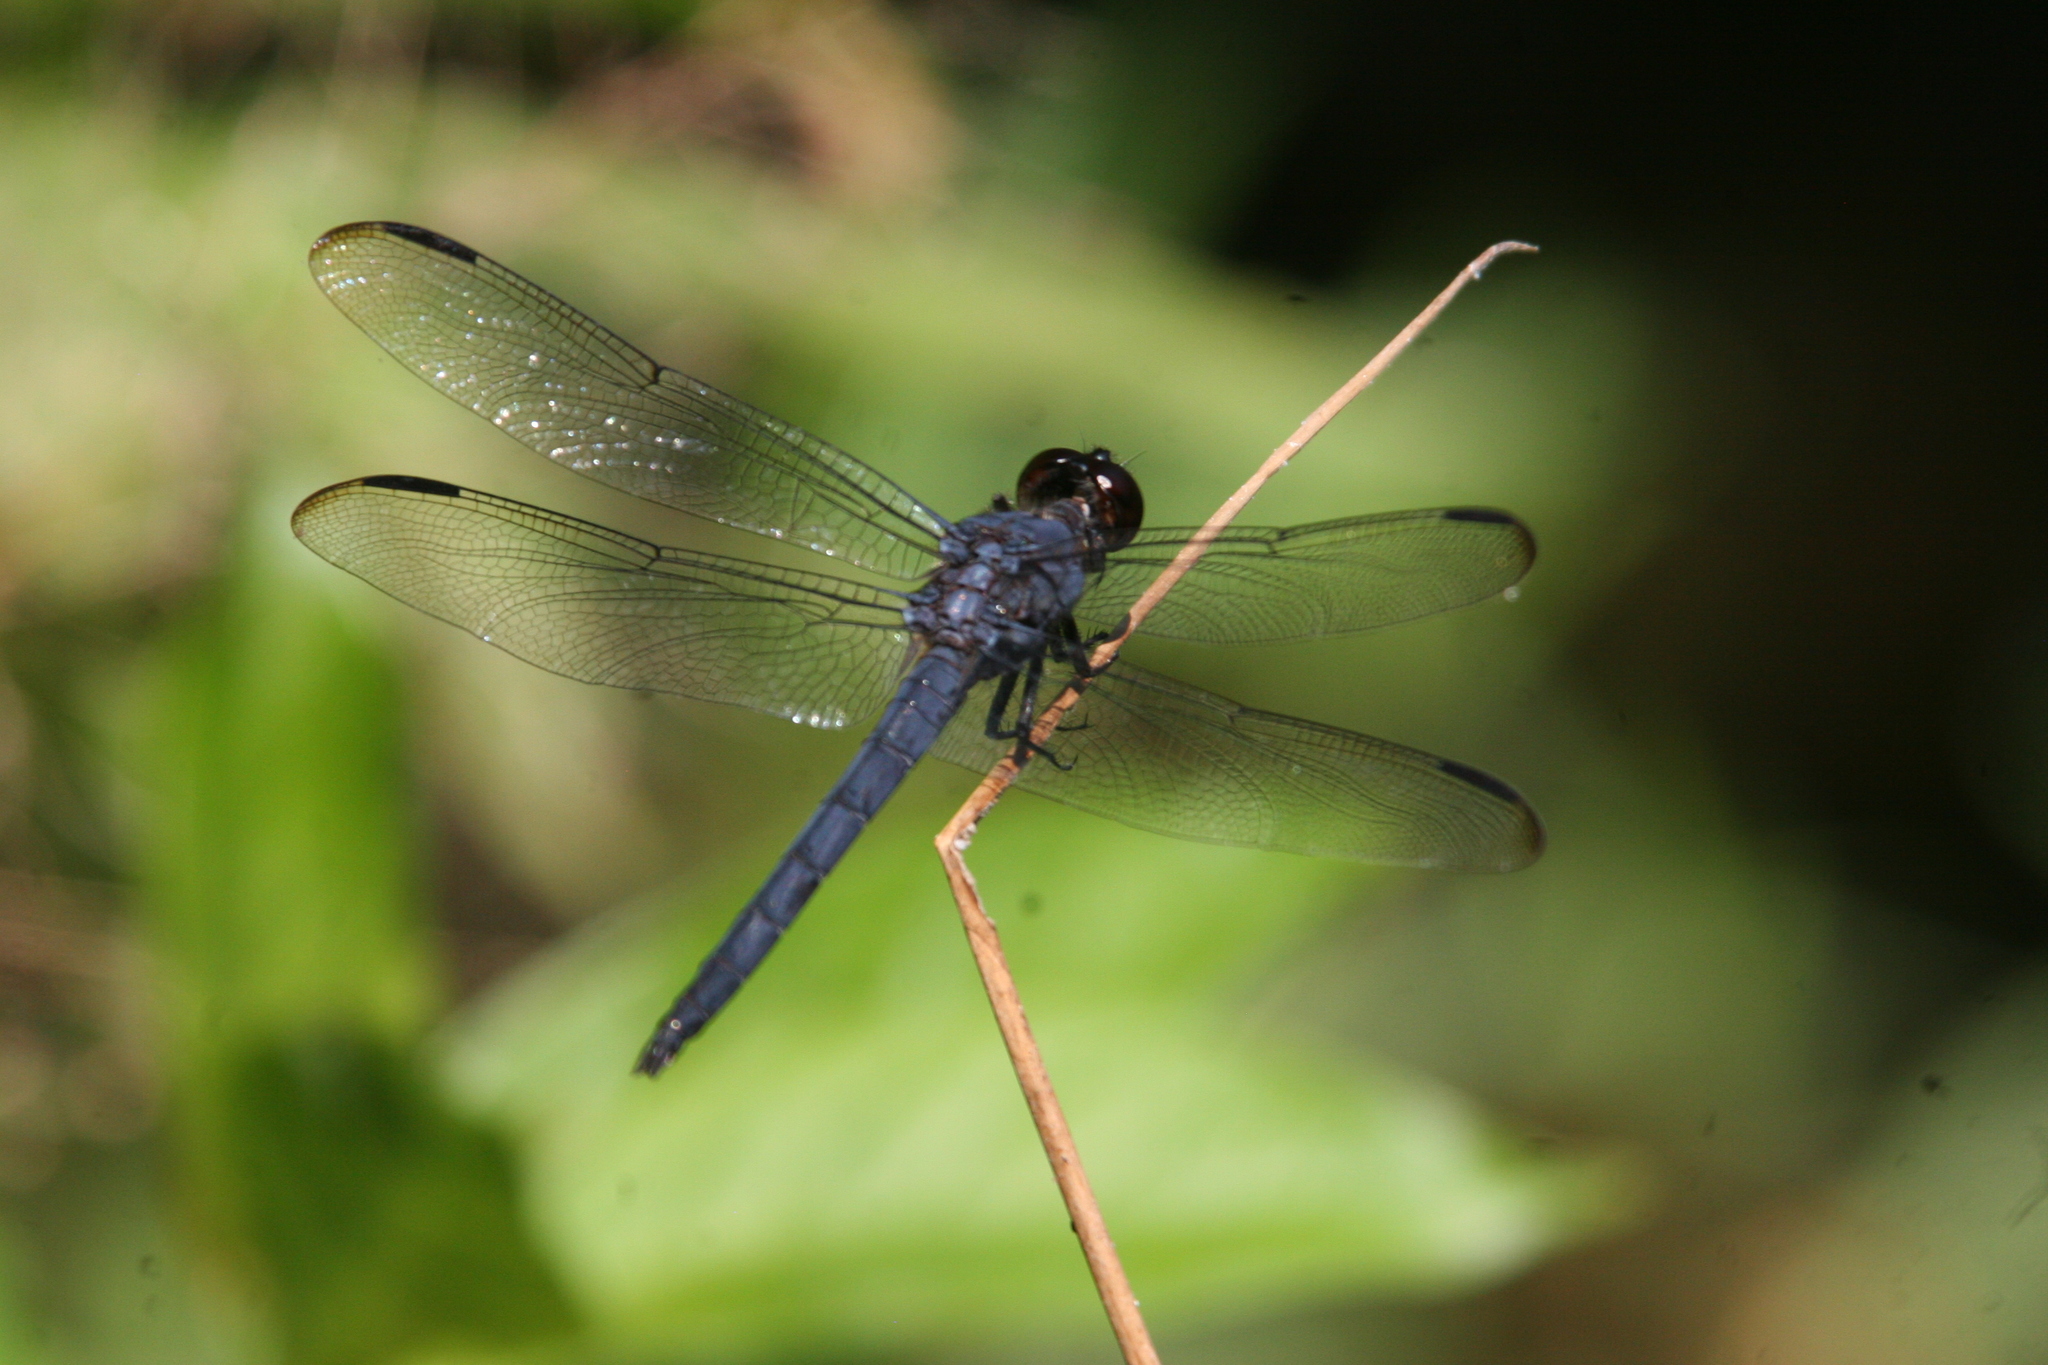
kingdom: Animalia
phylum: Arthropoda
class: Insecta
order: Odonata
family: Libellulidae
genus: Libellula
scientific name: Libellula incesta
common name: Slaty skimmer
